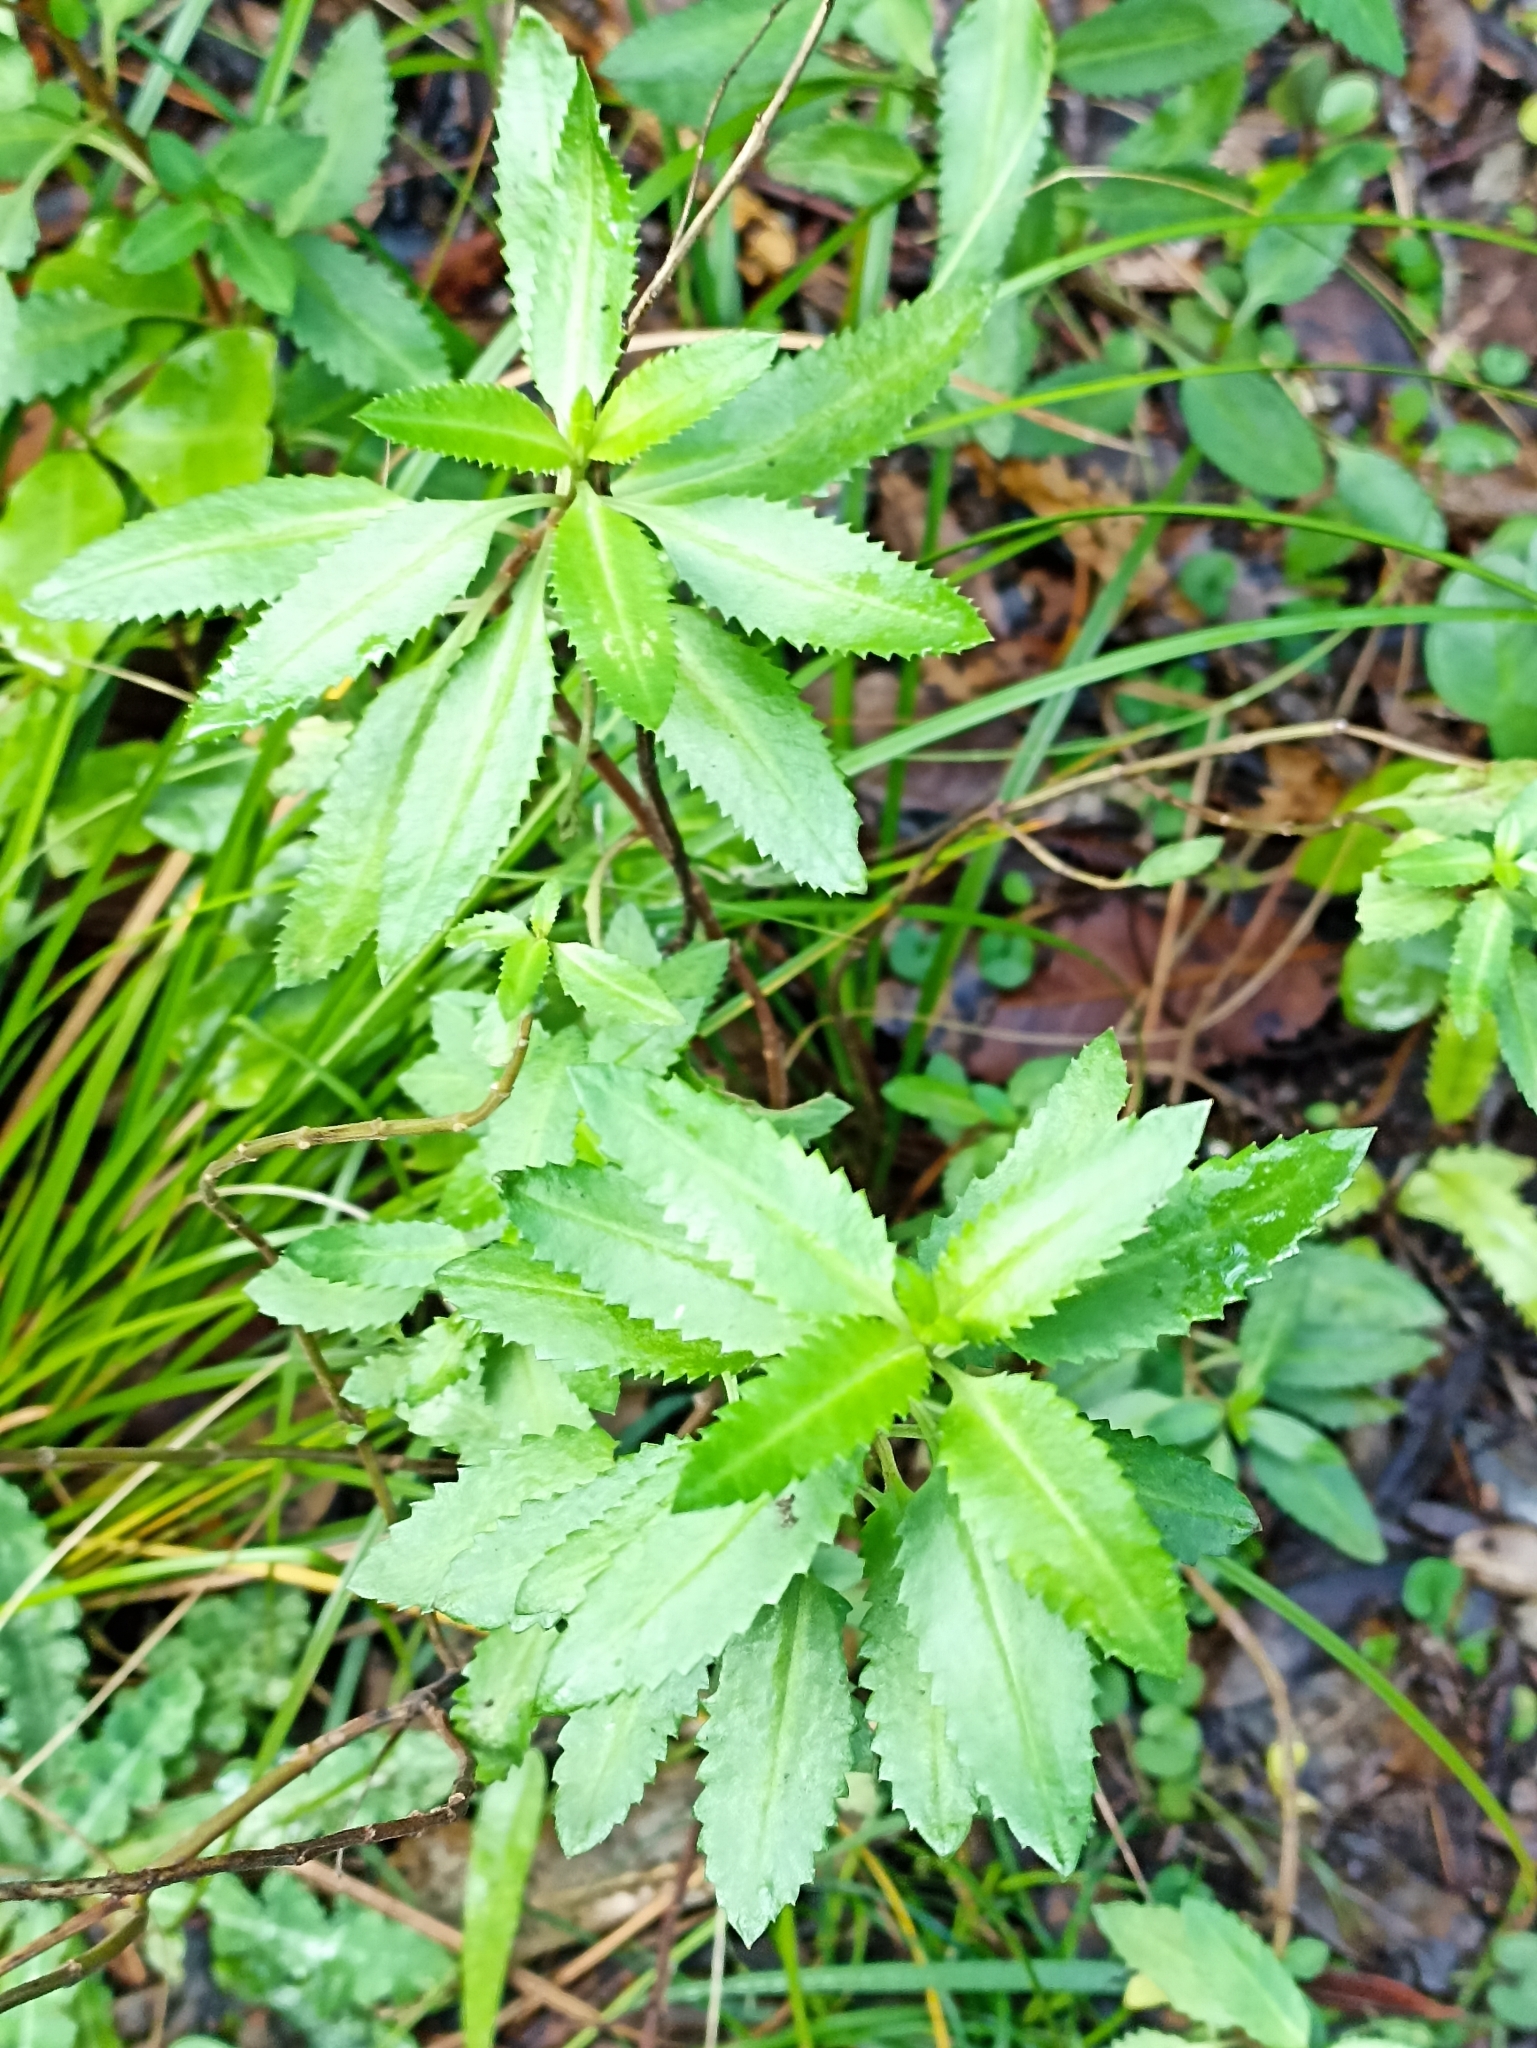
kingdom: Plantae
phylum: Tracheophyta
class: Magnoliopsida
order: Saxifragales
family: Haloragaceae
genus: Haloragis
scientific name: Haloragis erecta
